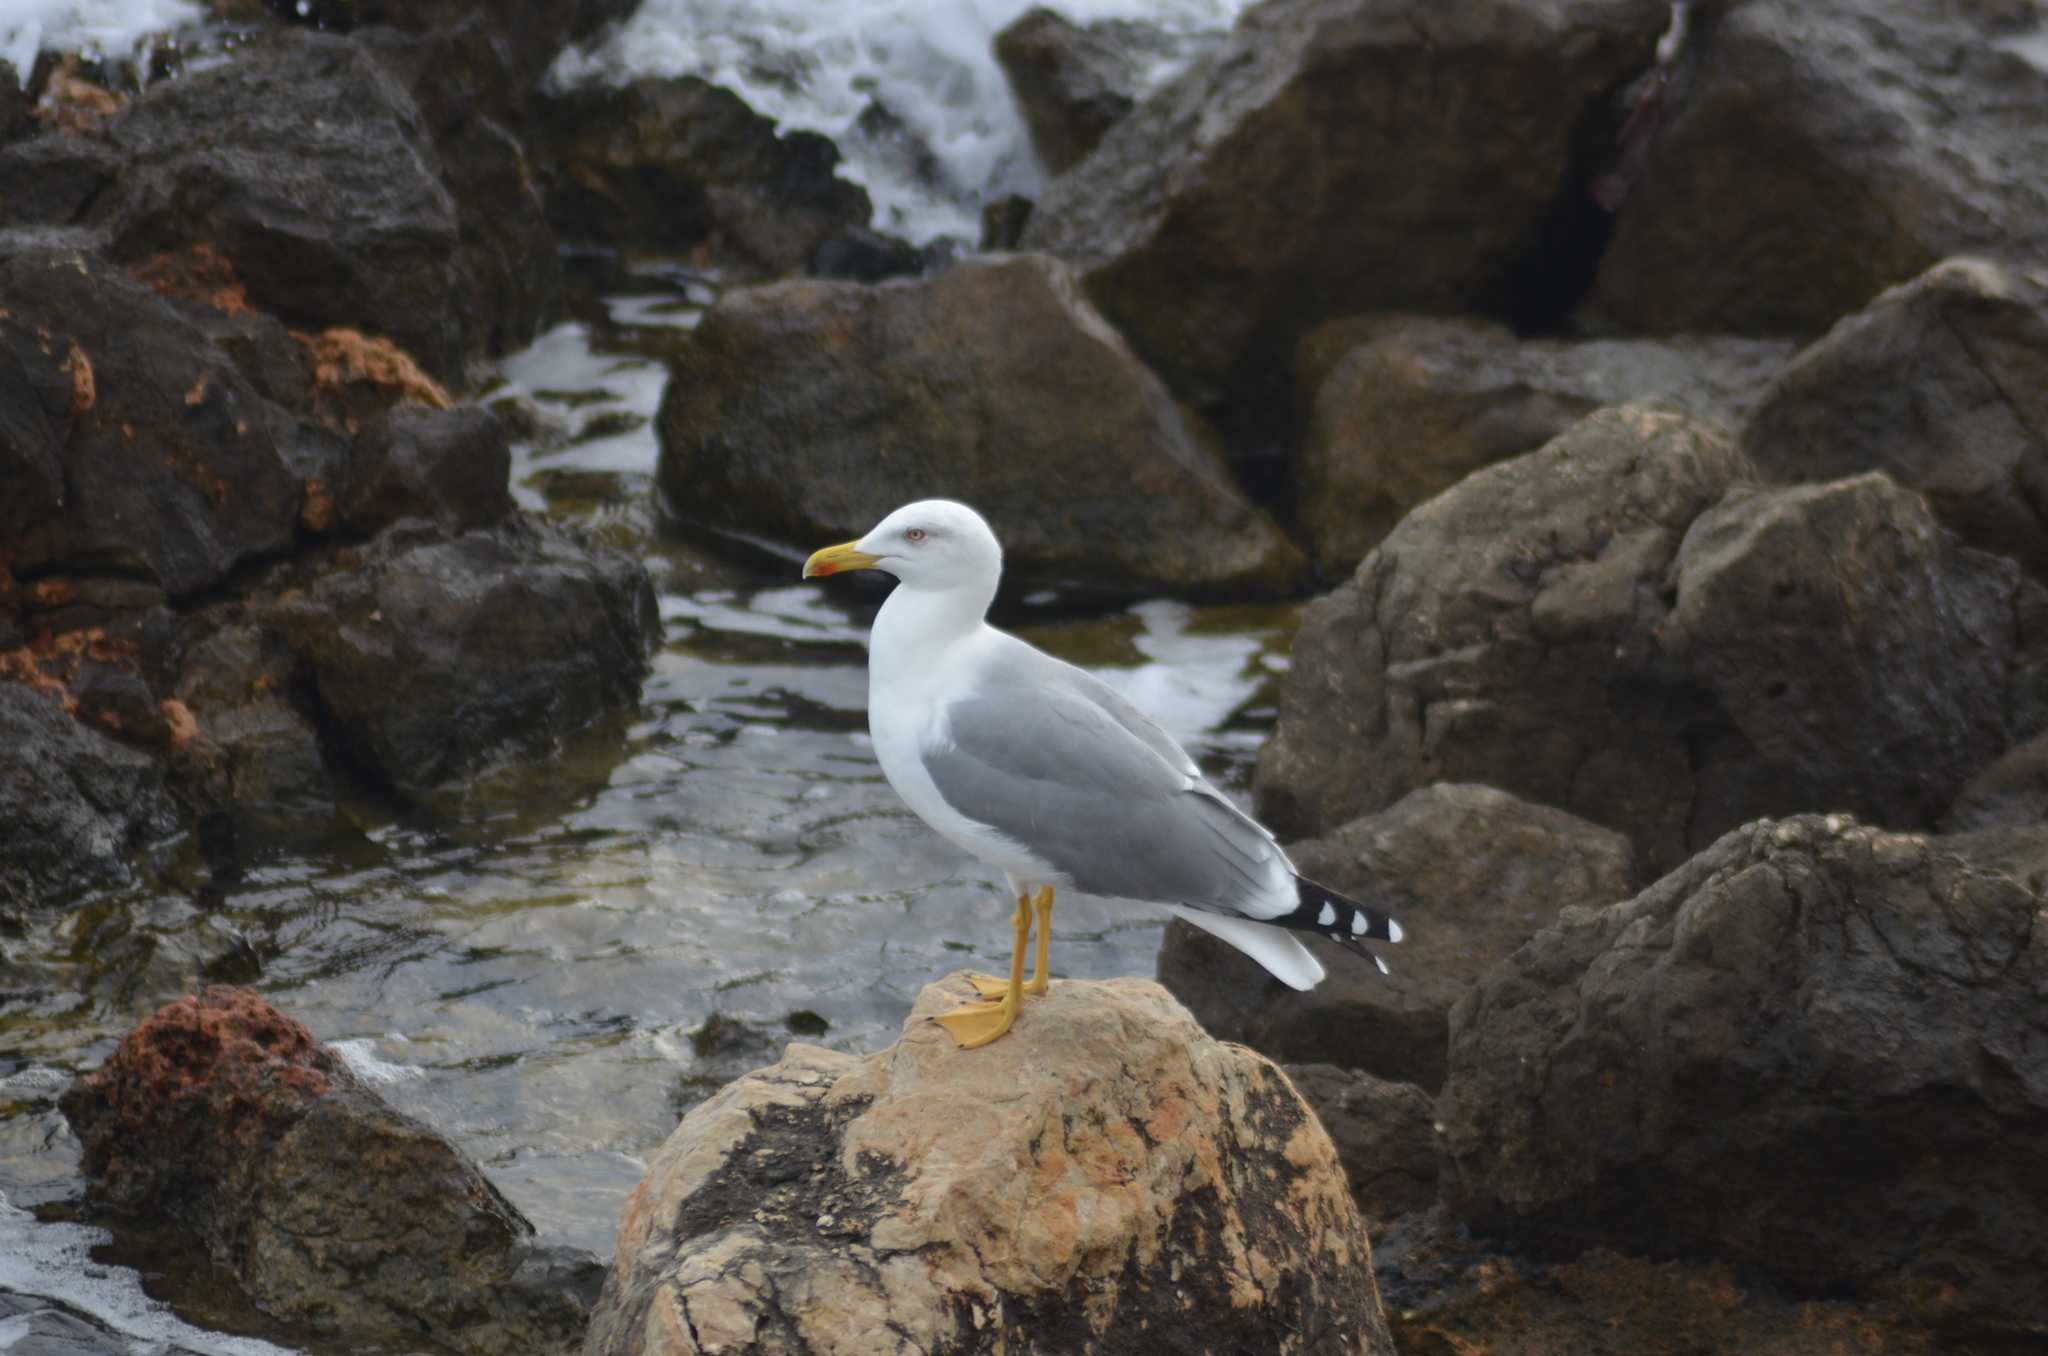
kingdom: Animalia
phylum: Chordata
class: Aves
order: Charadriiformes
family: Laridae
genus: Larus
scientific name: Larus michahellis
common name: Yellow-legged gull
